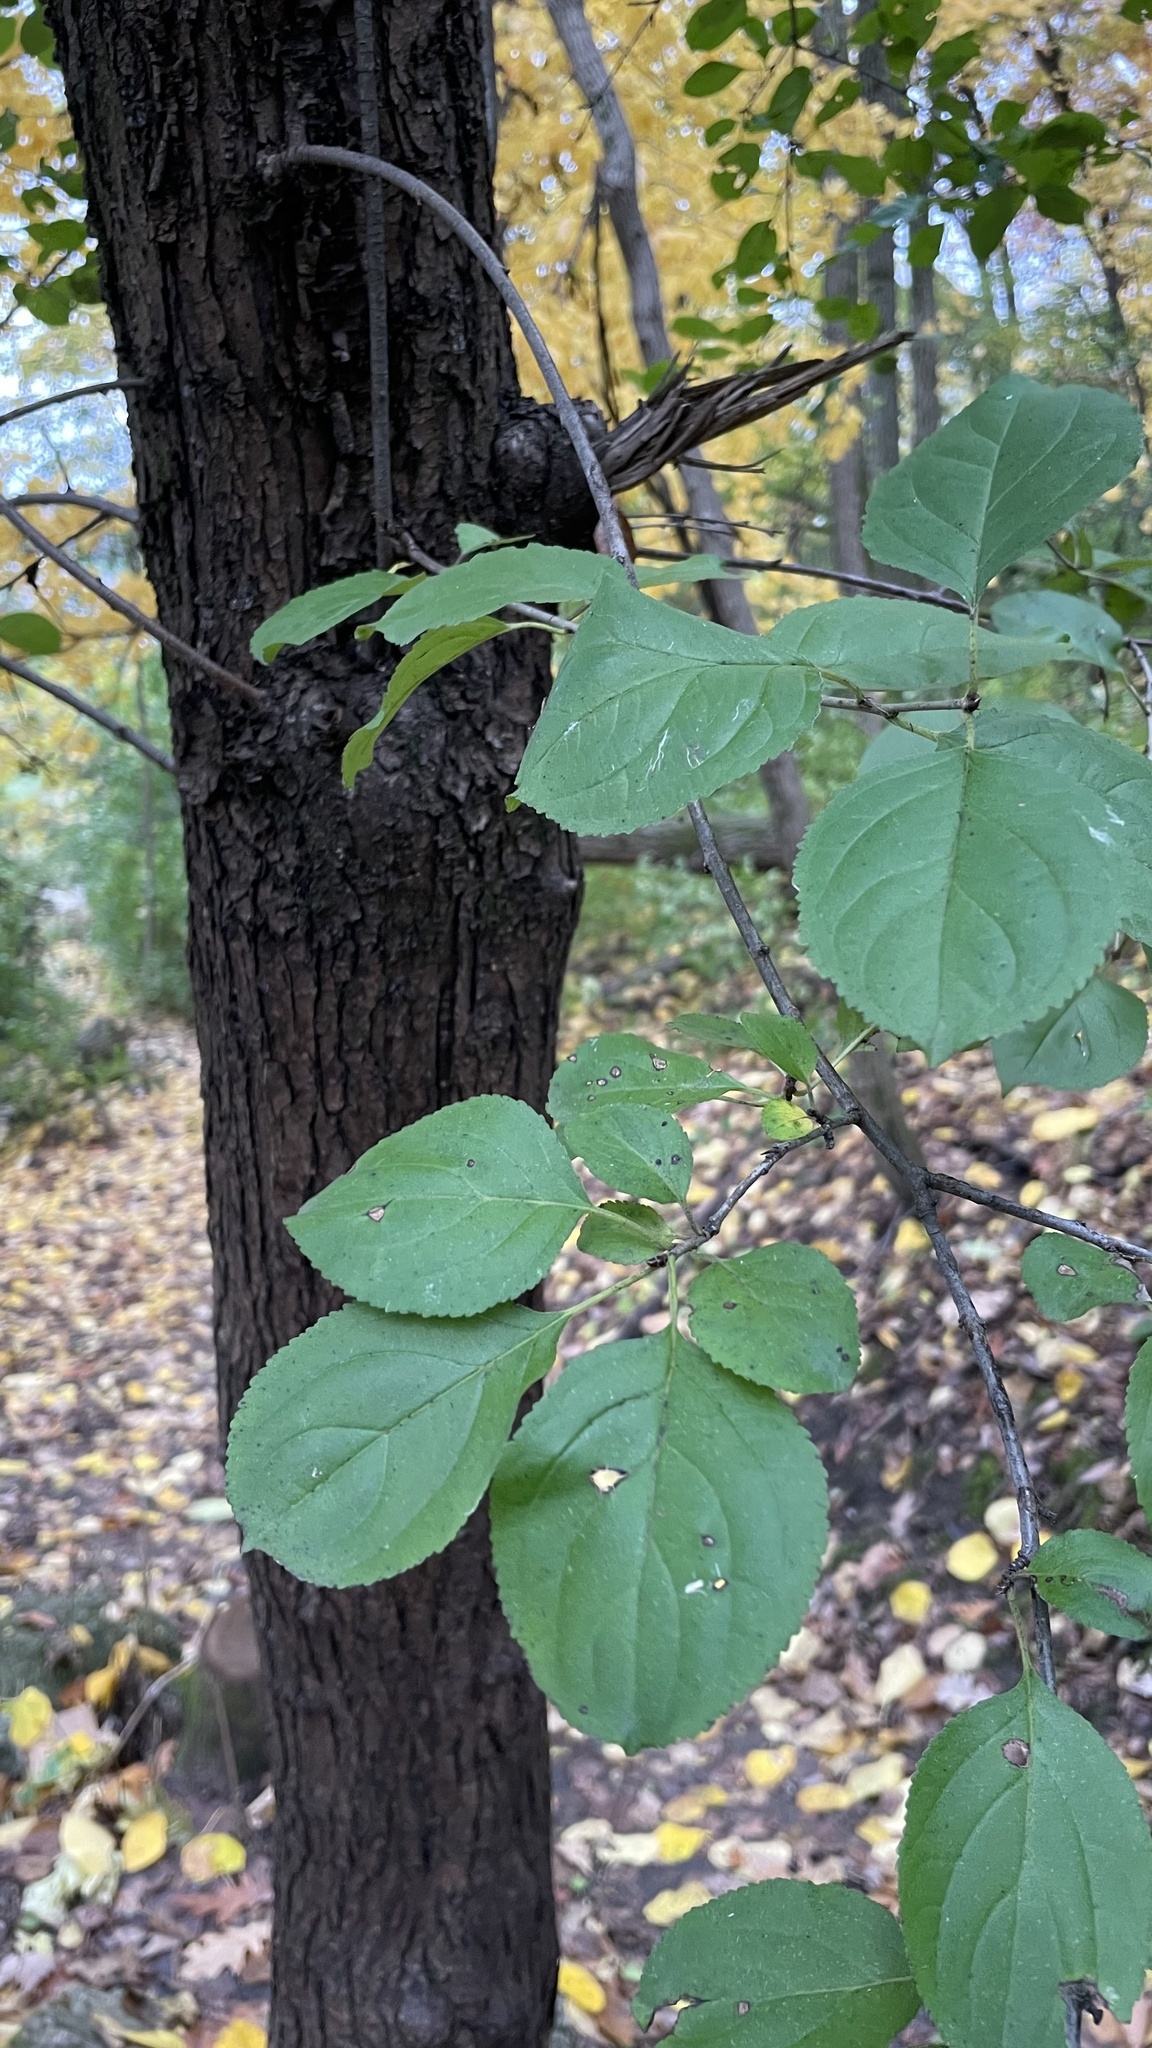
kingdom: Plantae
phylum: Tracheophyta
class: Magnoliopsida
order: Rosales
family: Rhamnaceae
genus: Rhamnus
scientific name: Rhamnus cathartica
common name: Common buckthorn
